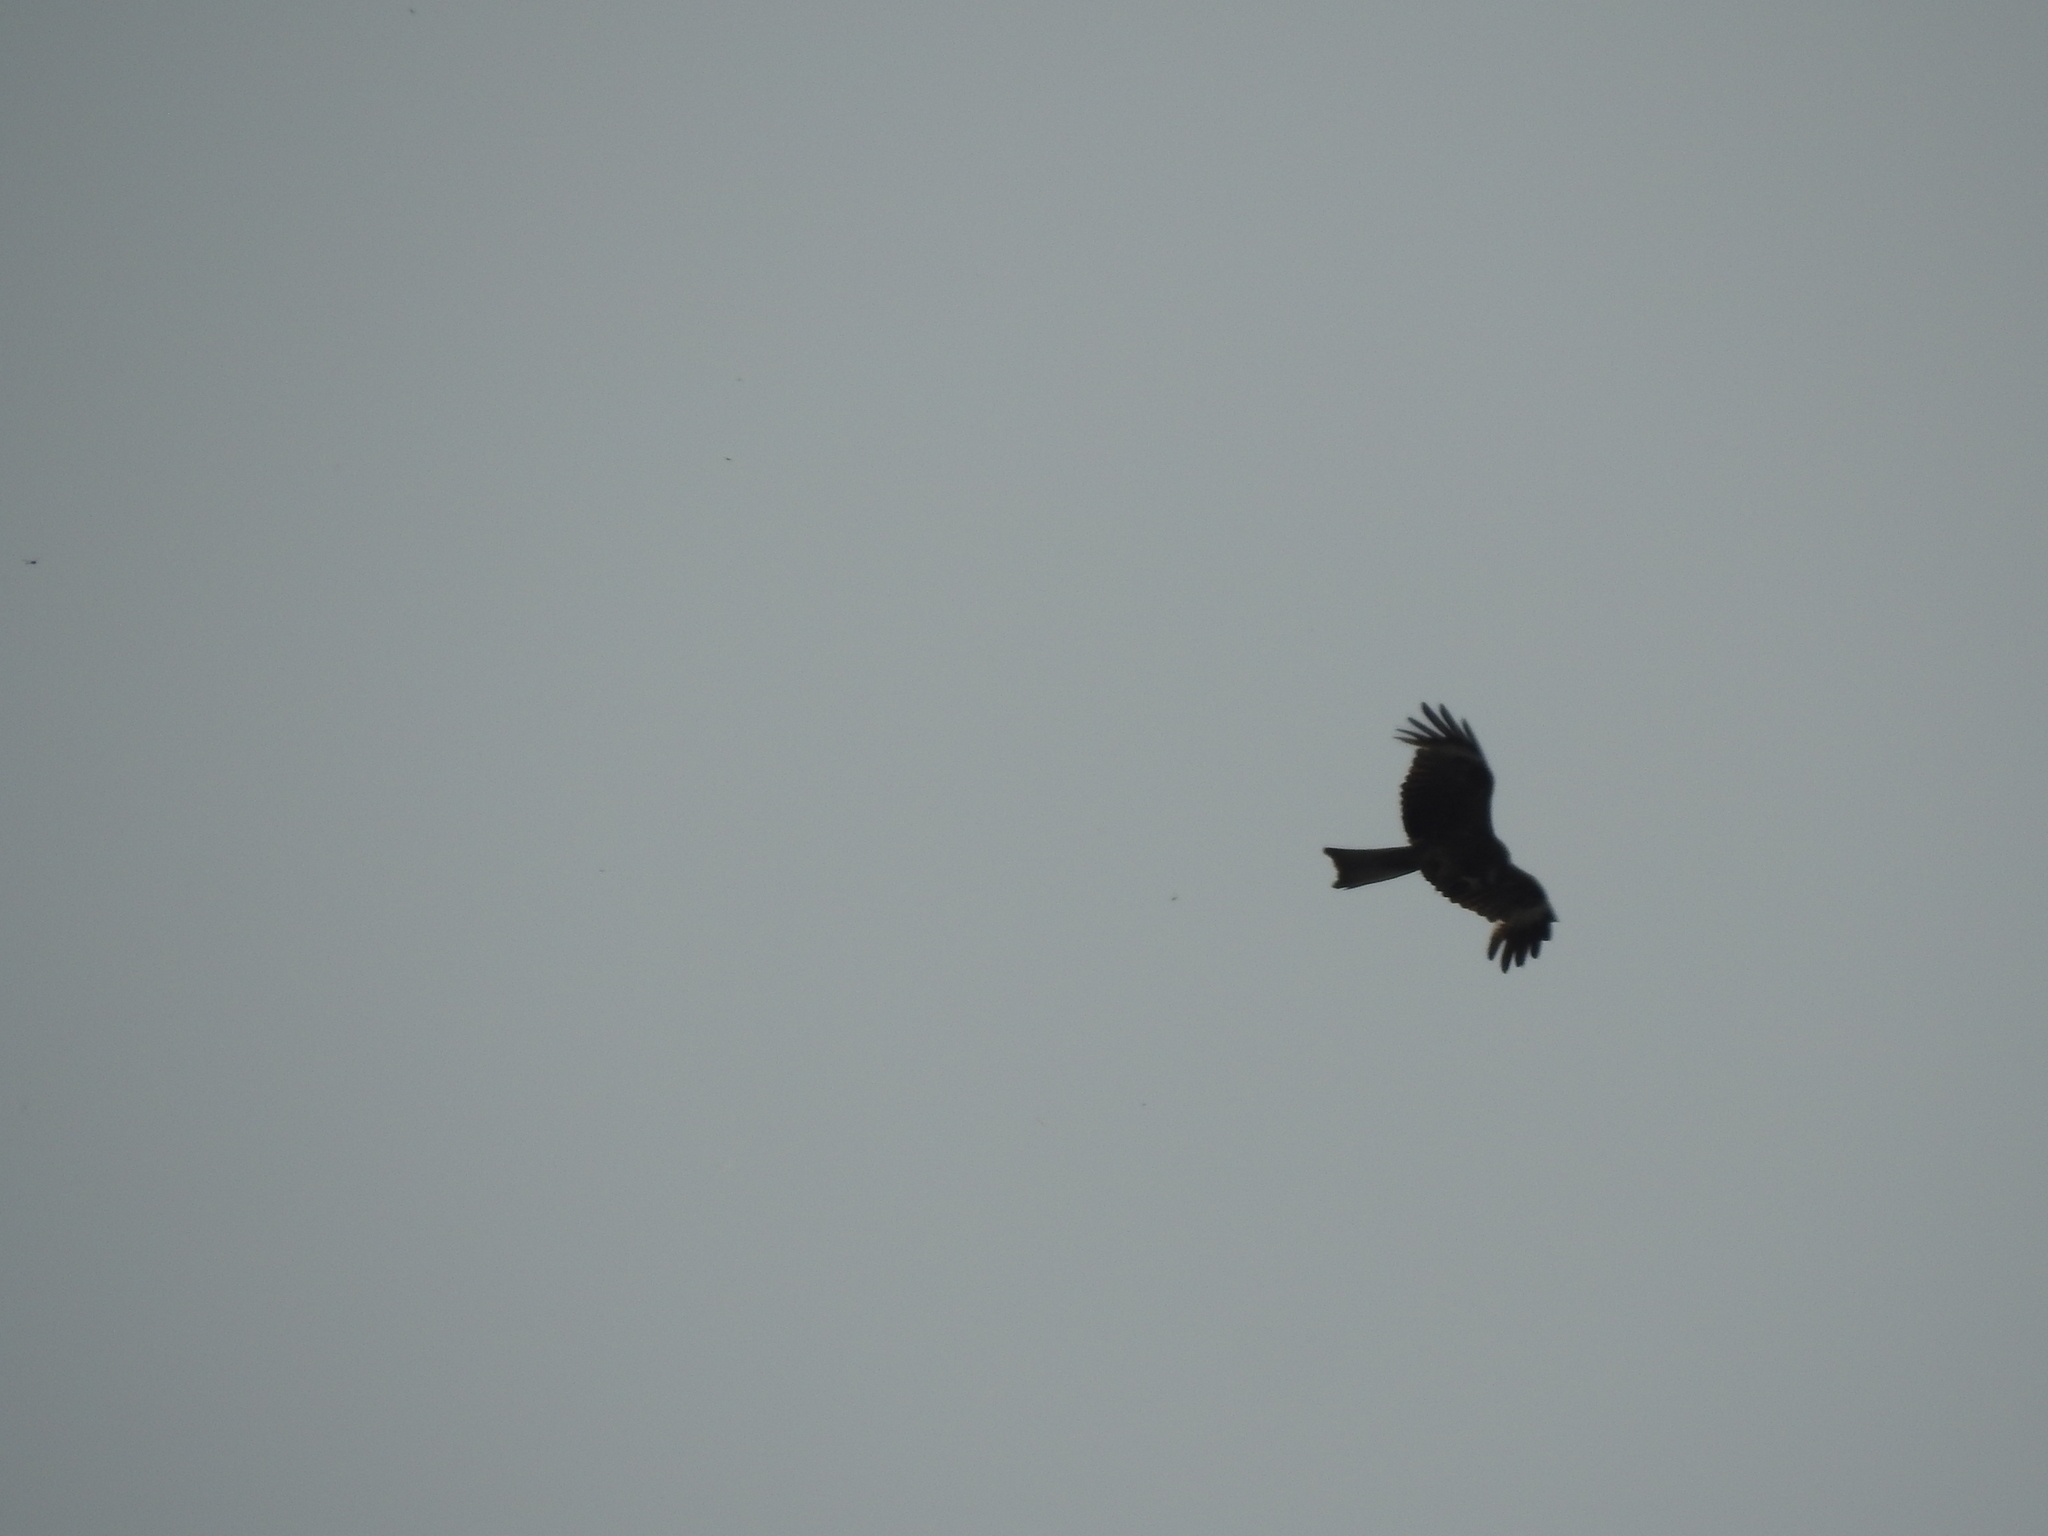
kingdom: Animalia
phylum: Chordata
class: Aves
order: Accipitriformes
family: Accipitridae
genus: Milvus
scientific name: Milvus migrans
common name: Black kite
